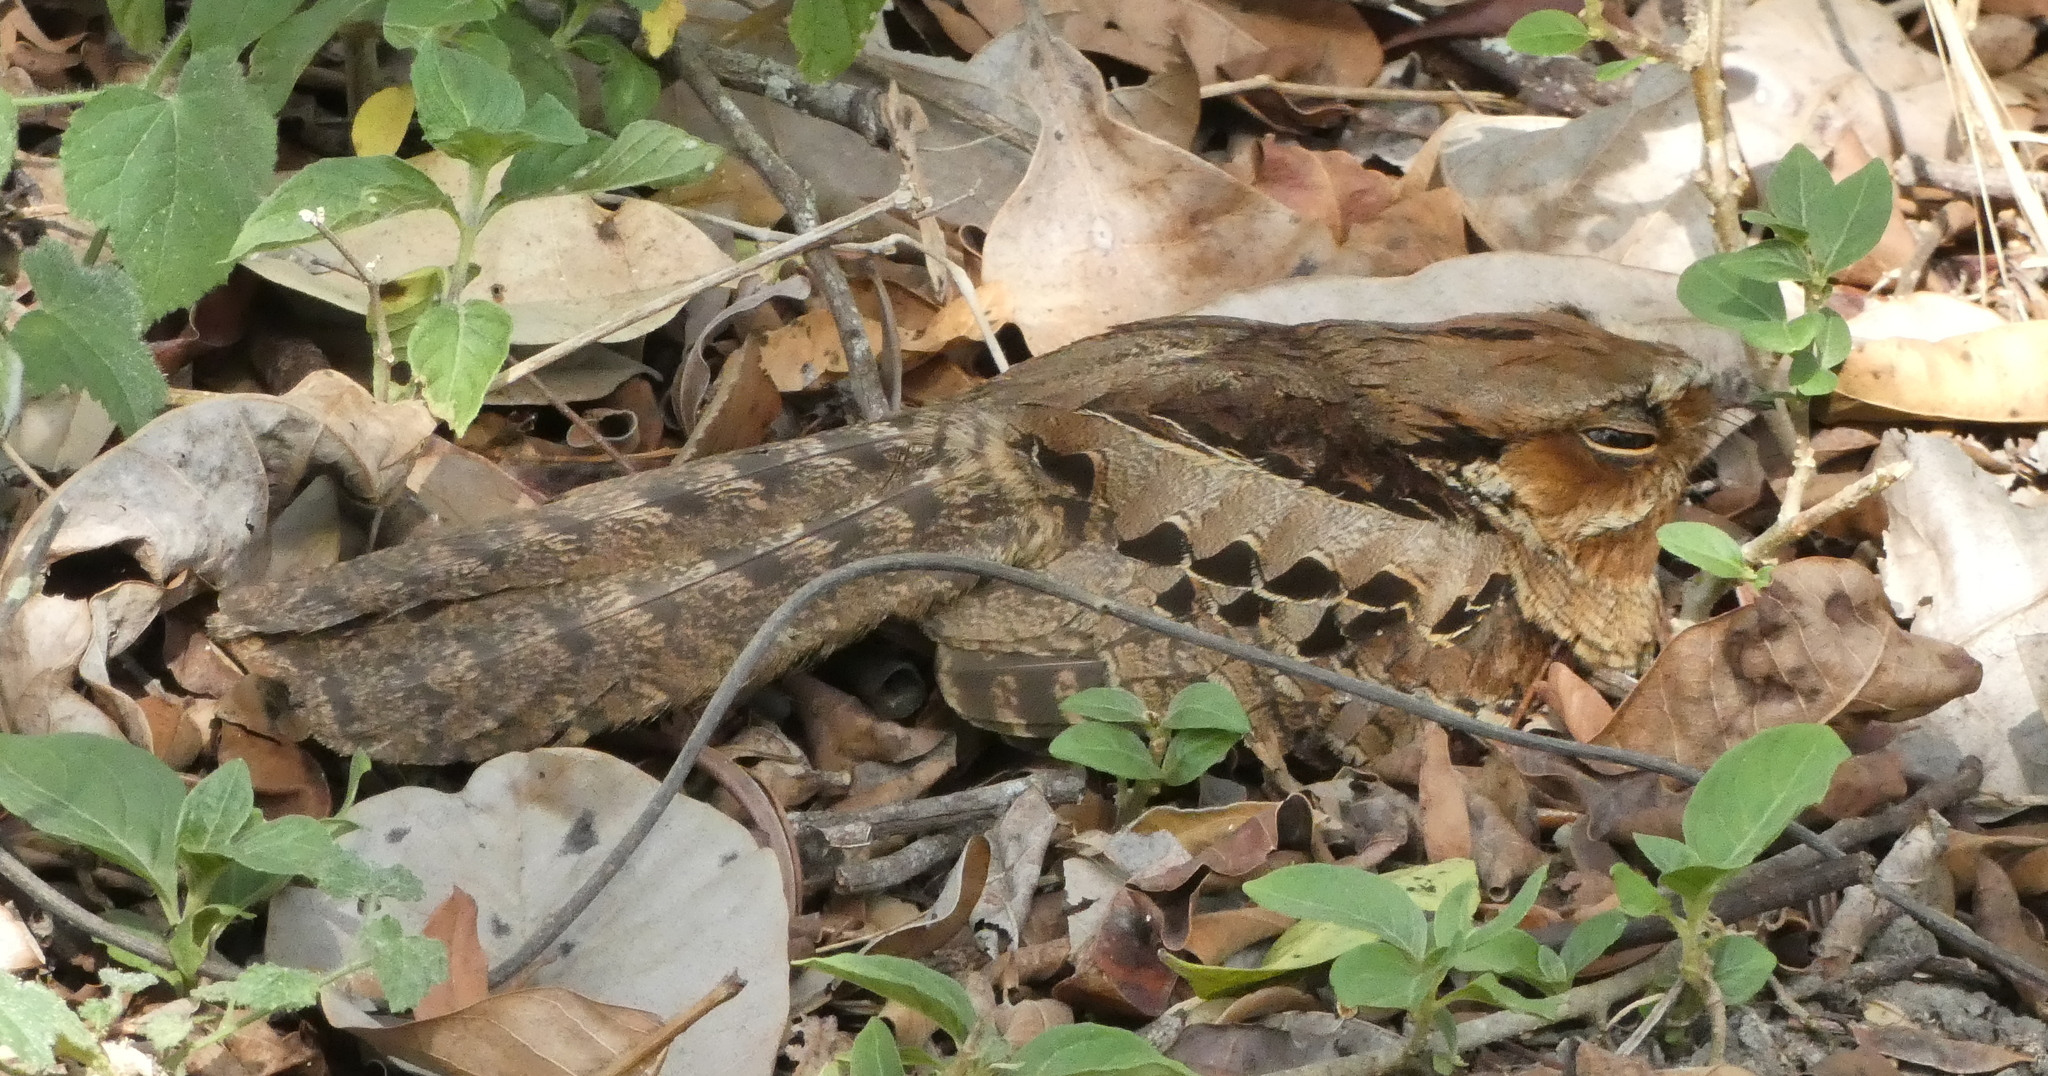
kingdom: Animalia
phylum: Chordata
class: Aves
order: Caprimulgiformes
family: Caprimulgidae
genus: Nyctidromus
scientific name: Nyctidromus albicollis
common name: Pauraque
